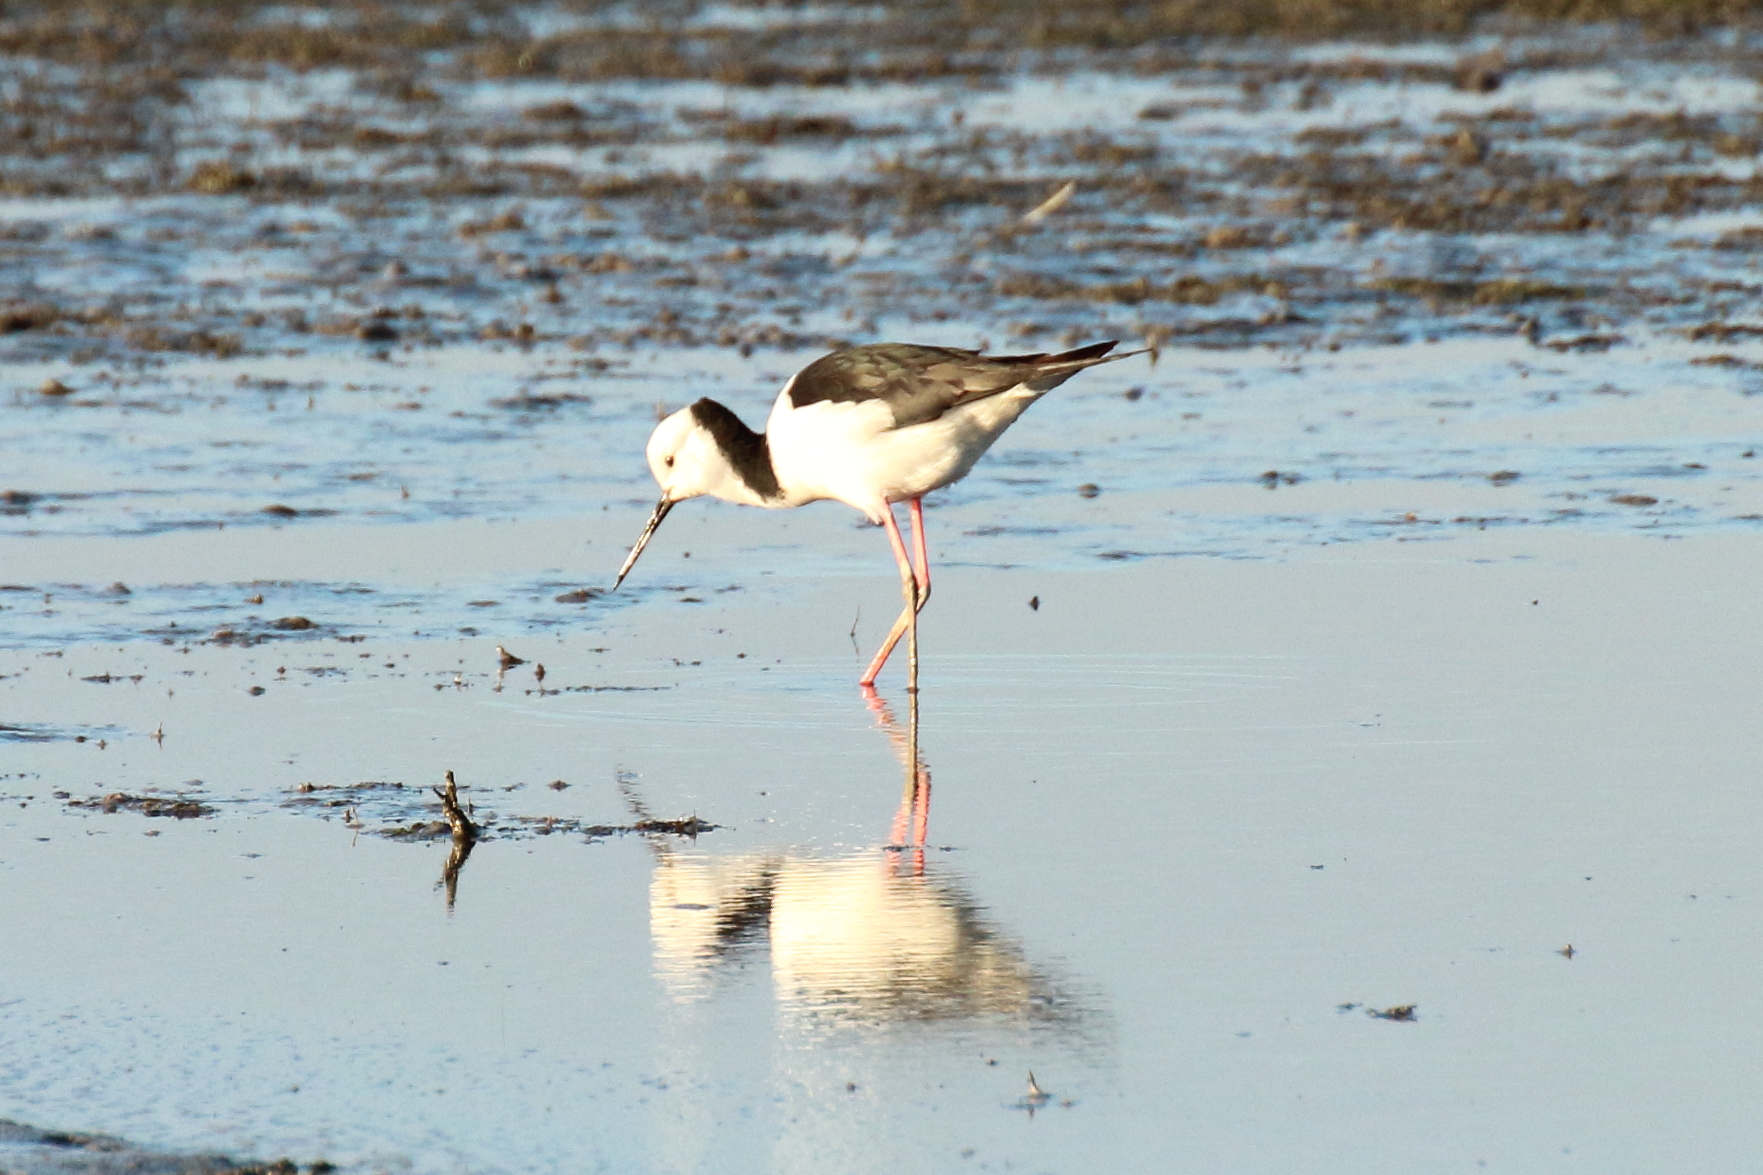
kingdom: Animalia
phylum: Chordata
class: Aves
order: Charadriiformes
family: Recurvirostridae
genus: Himantopus
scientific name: Himantopus leucocephalus
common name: White-headed stilt
